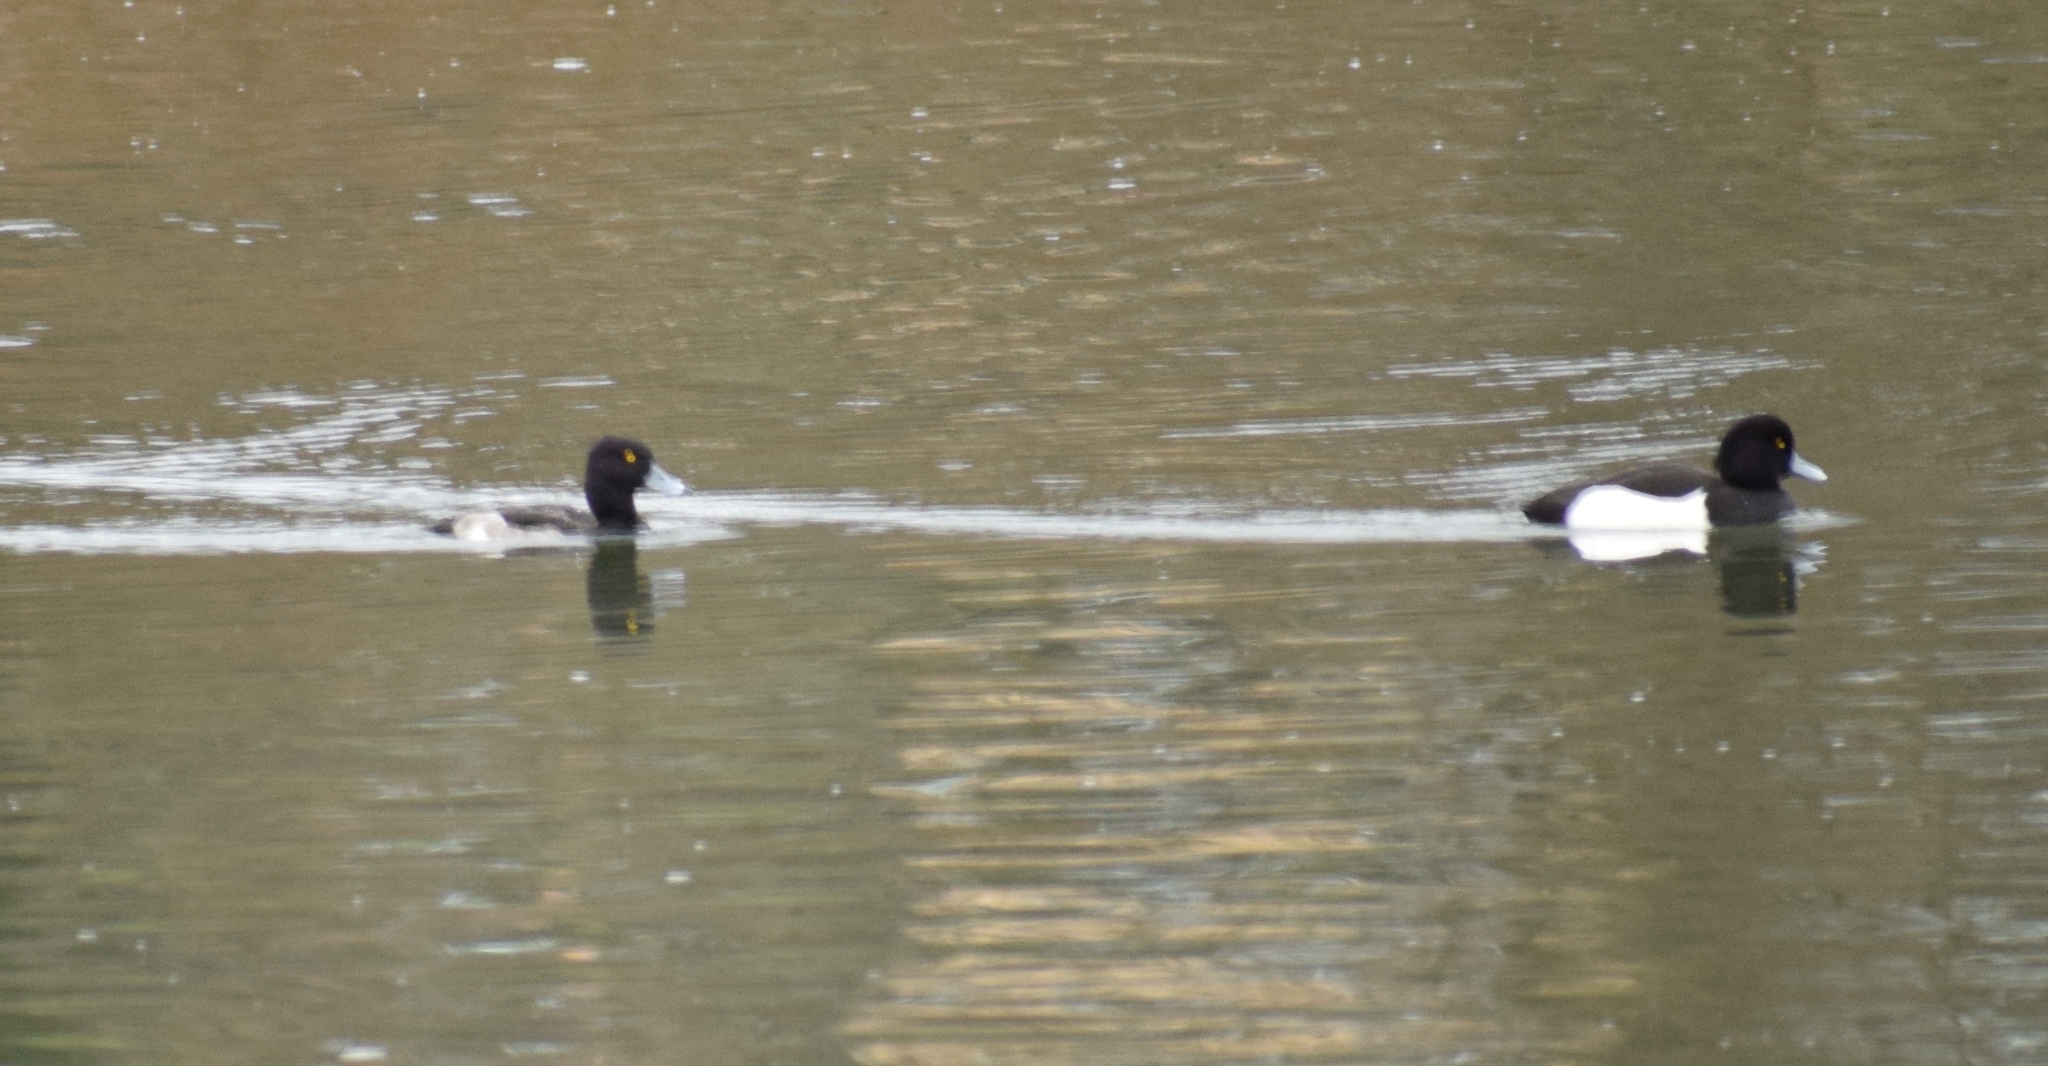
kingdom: Animalia
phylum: Chordata
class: Aves
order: Anseriformes
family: Anatidae
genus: Aythya
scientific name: Aythya fuligula
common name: Tufted duck
